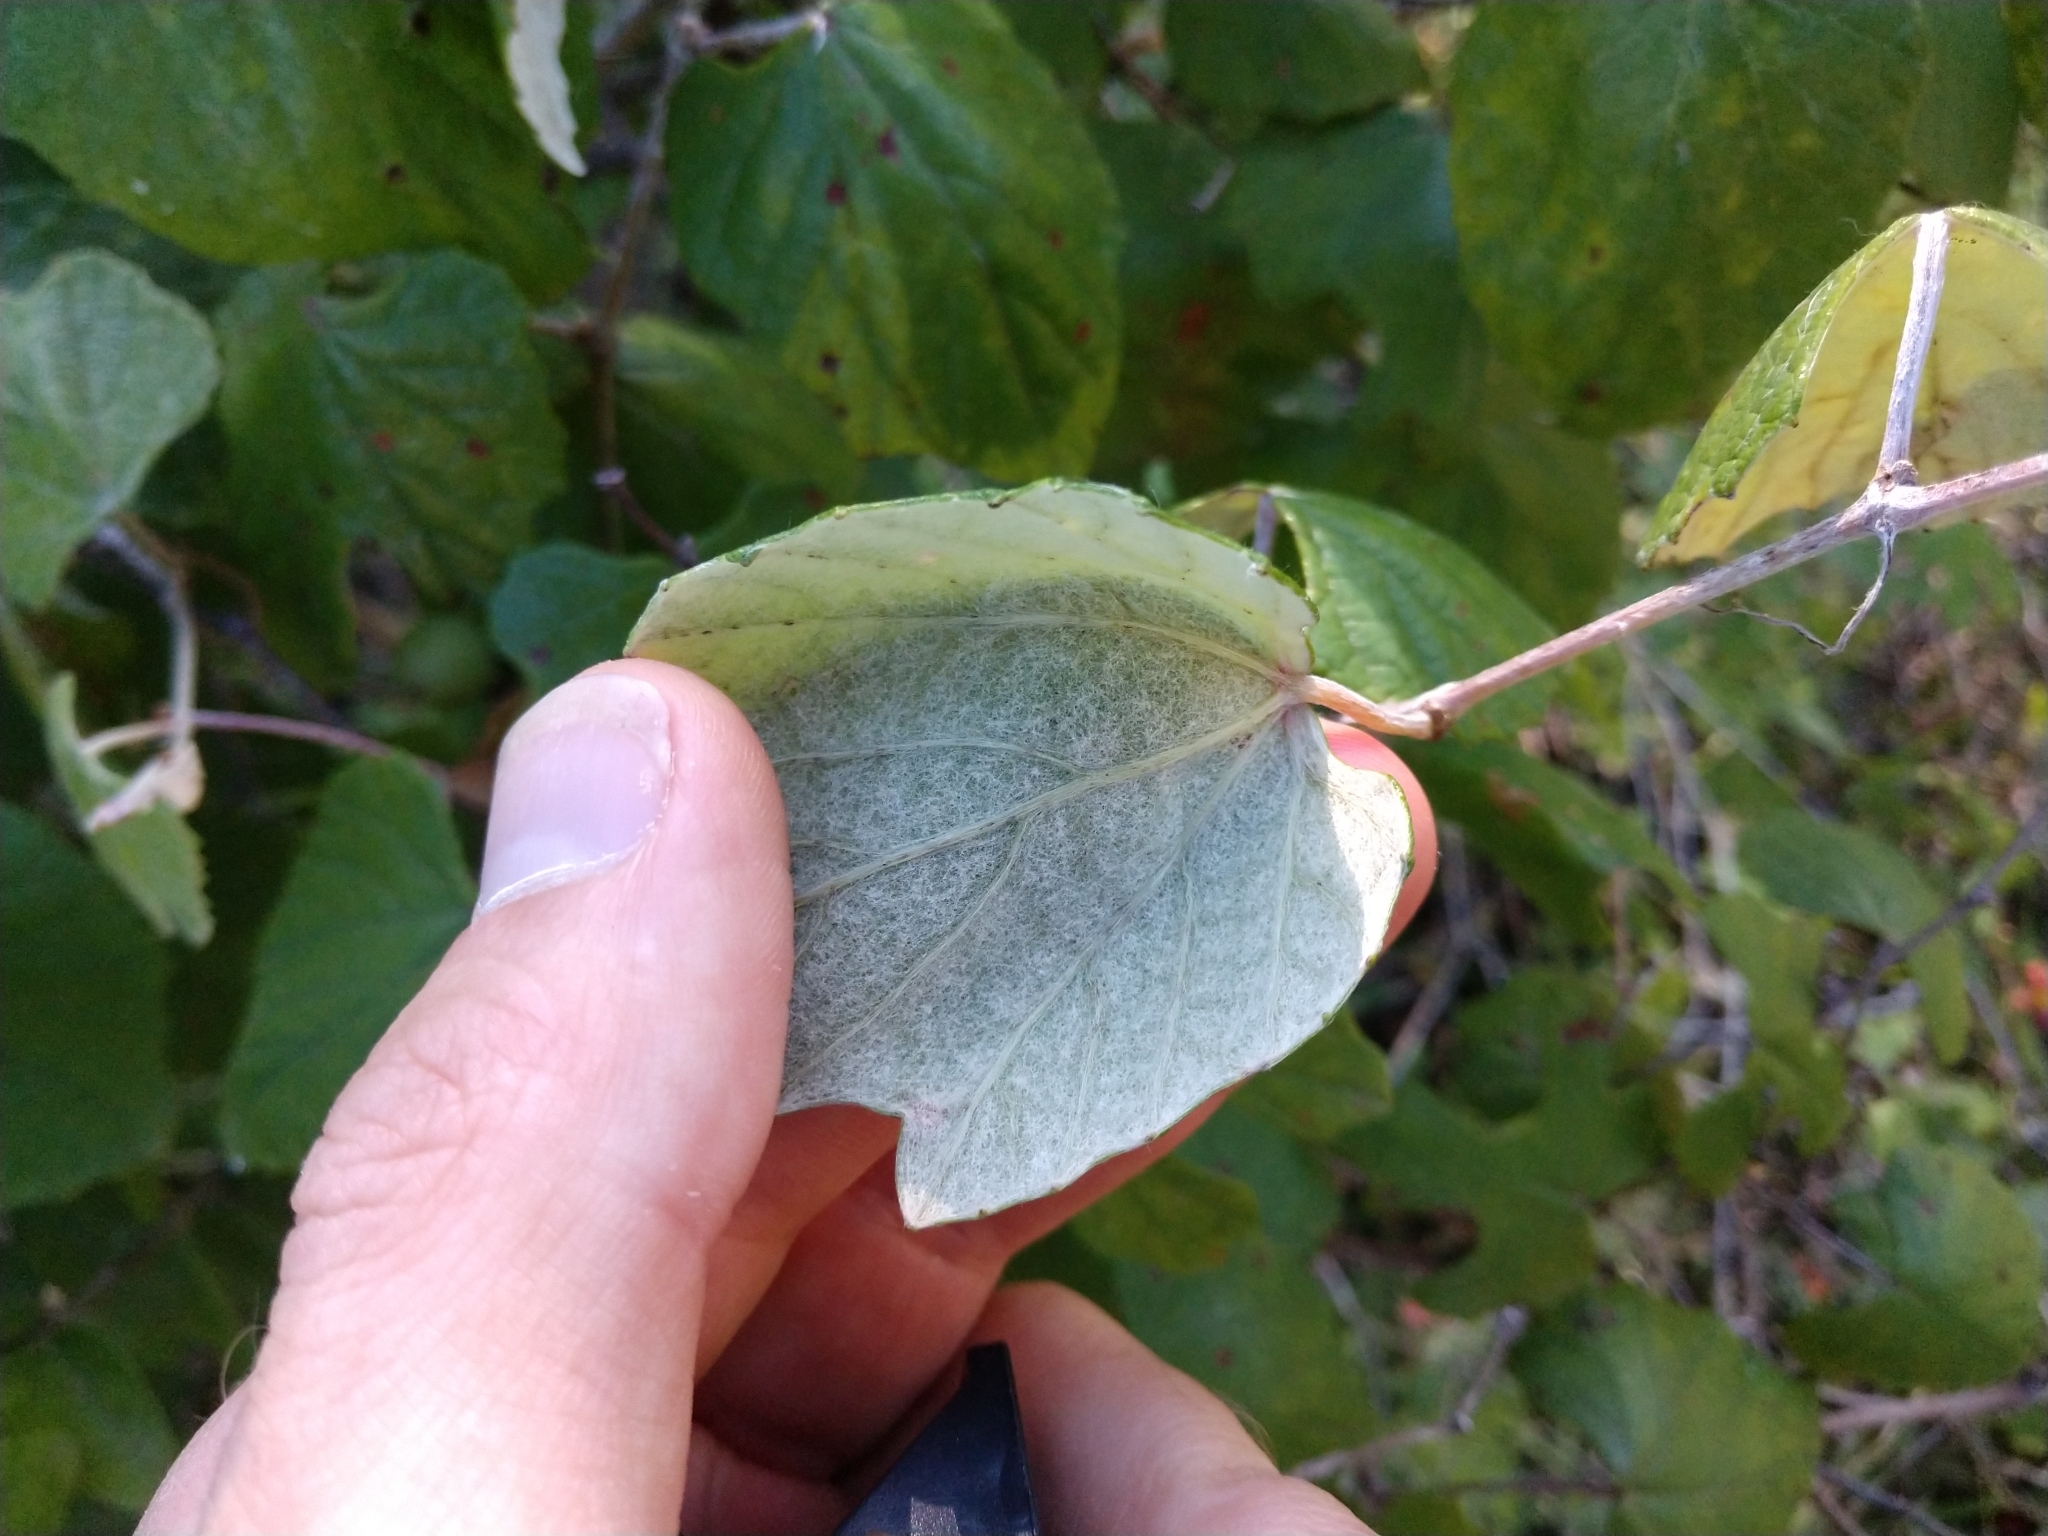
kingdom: Plantae
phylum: Tracheophyta
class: Magnoliopsida
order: Vitales
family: Vitaceae
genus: Vitis
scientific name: Vitis mustangensis
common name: Mustang grape
